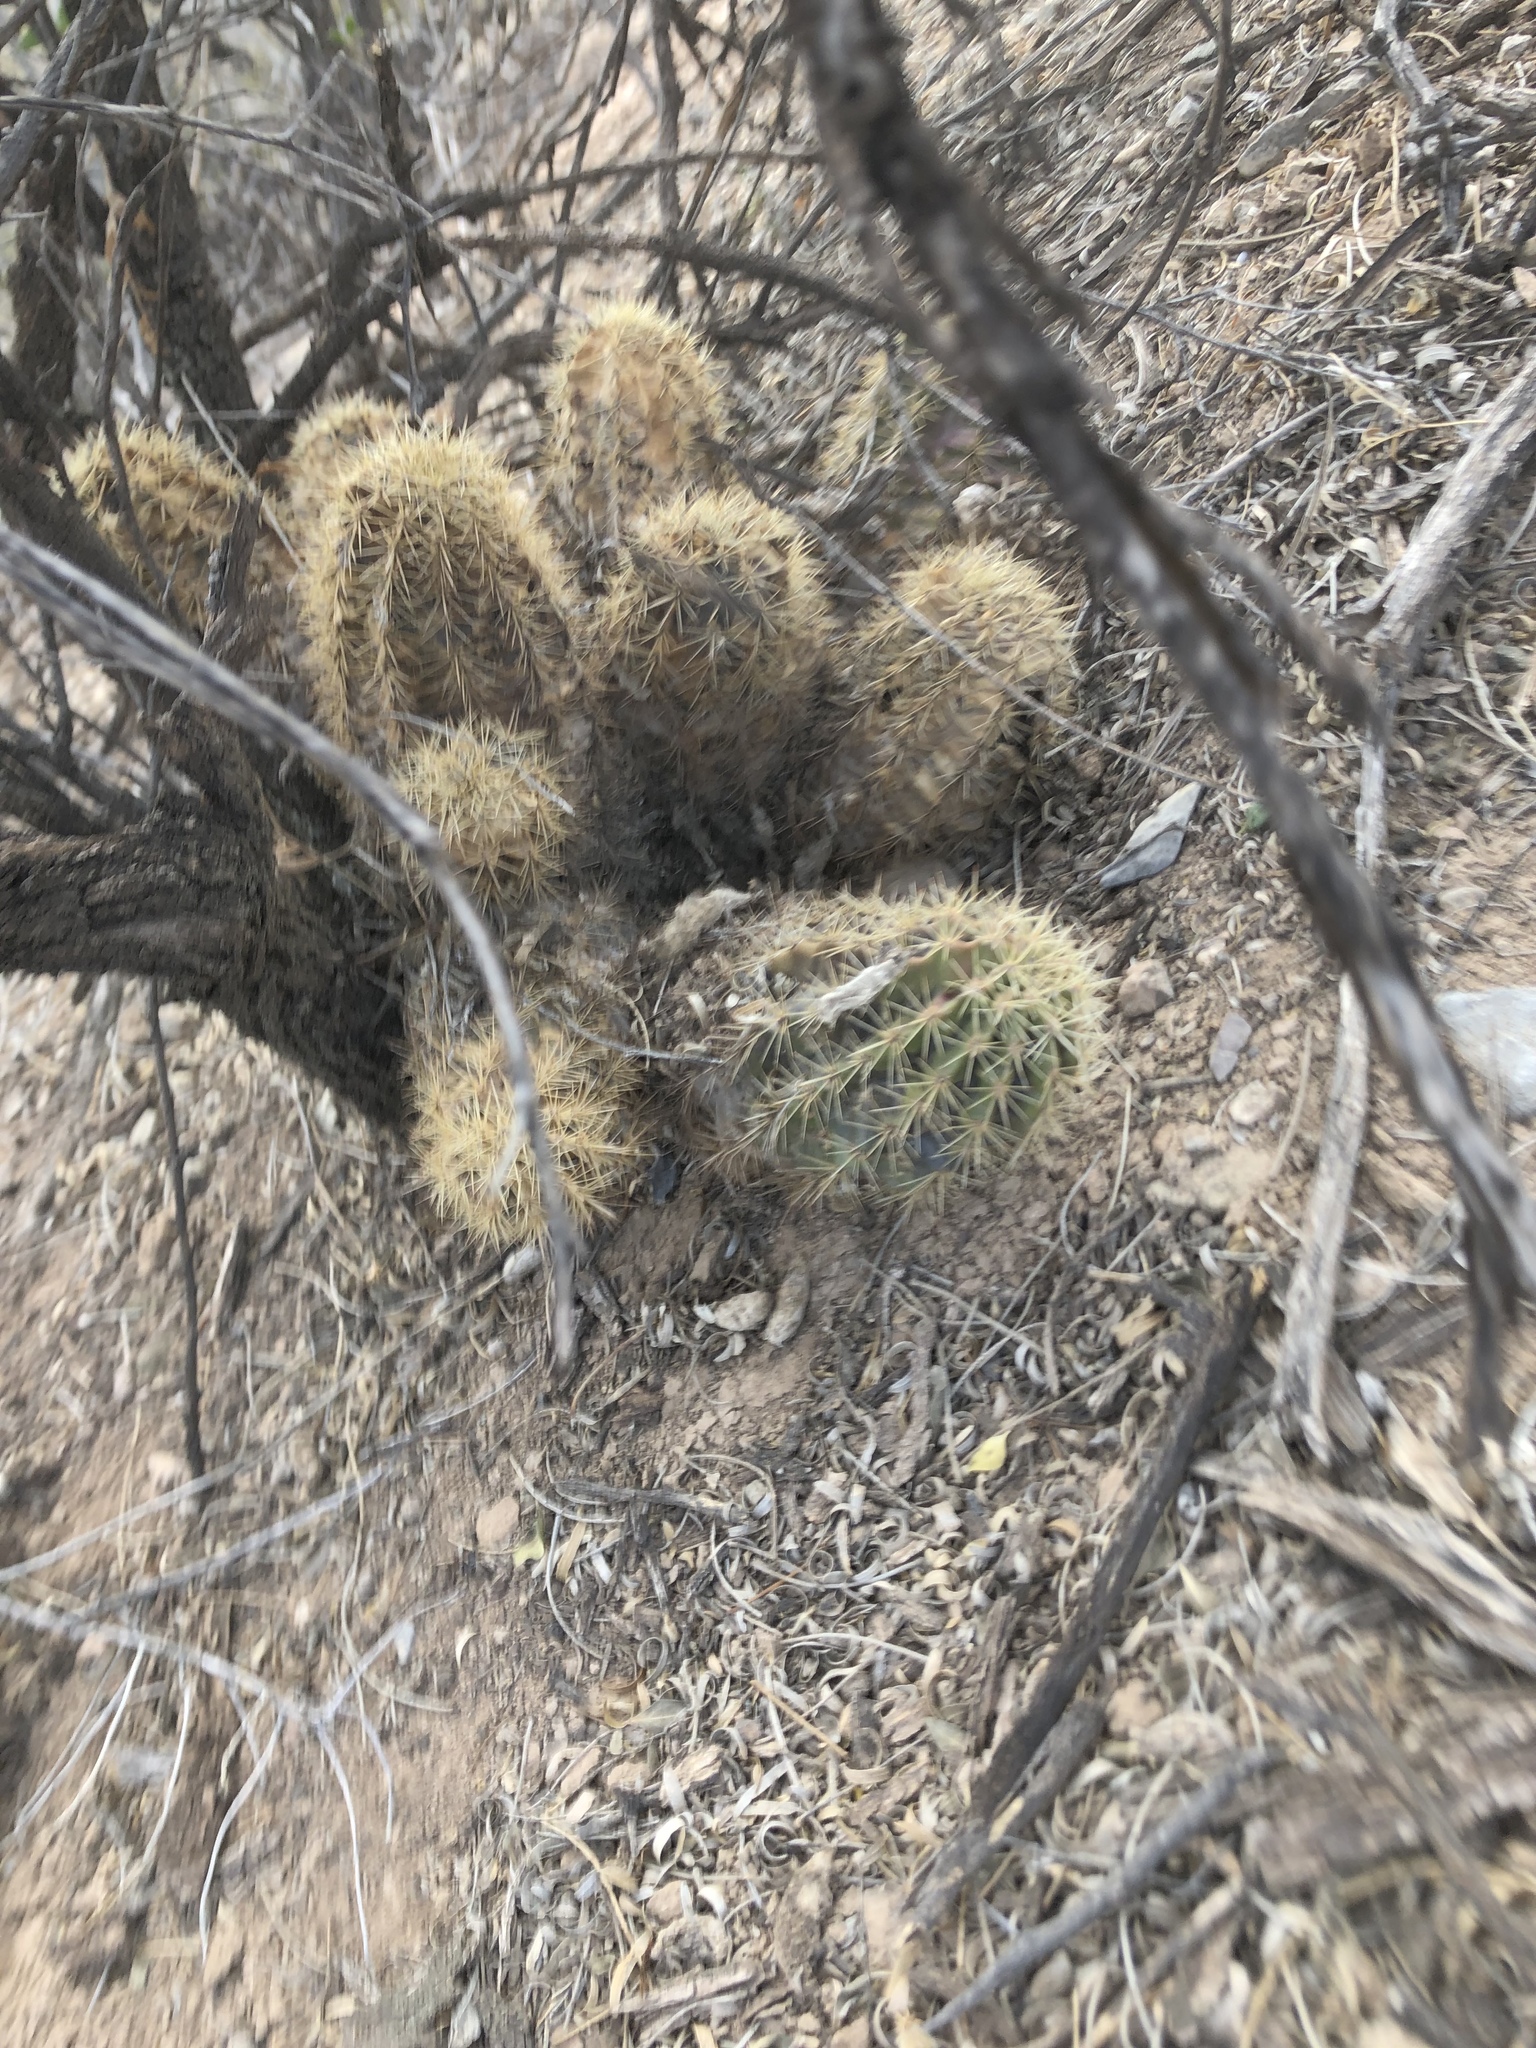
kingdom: Plantae
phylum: Tracheophyta
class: Magnoliopsida
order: Caryophyllales
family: Cactaceae
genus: Echinocereus
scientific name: Echinocereus coccineus
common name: Scarlet hedgehog cactus
